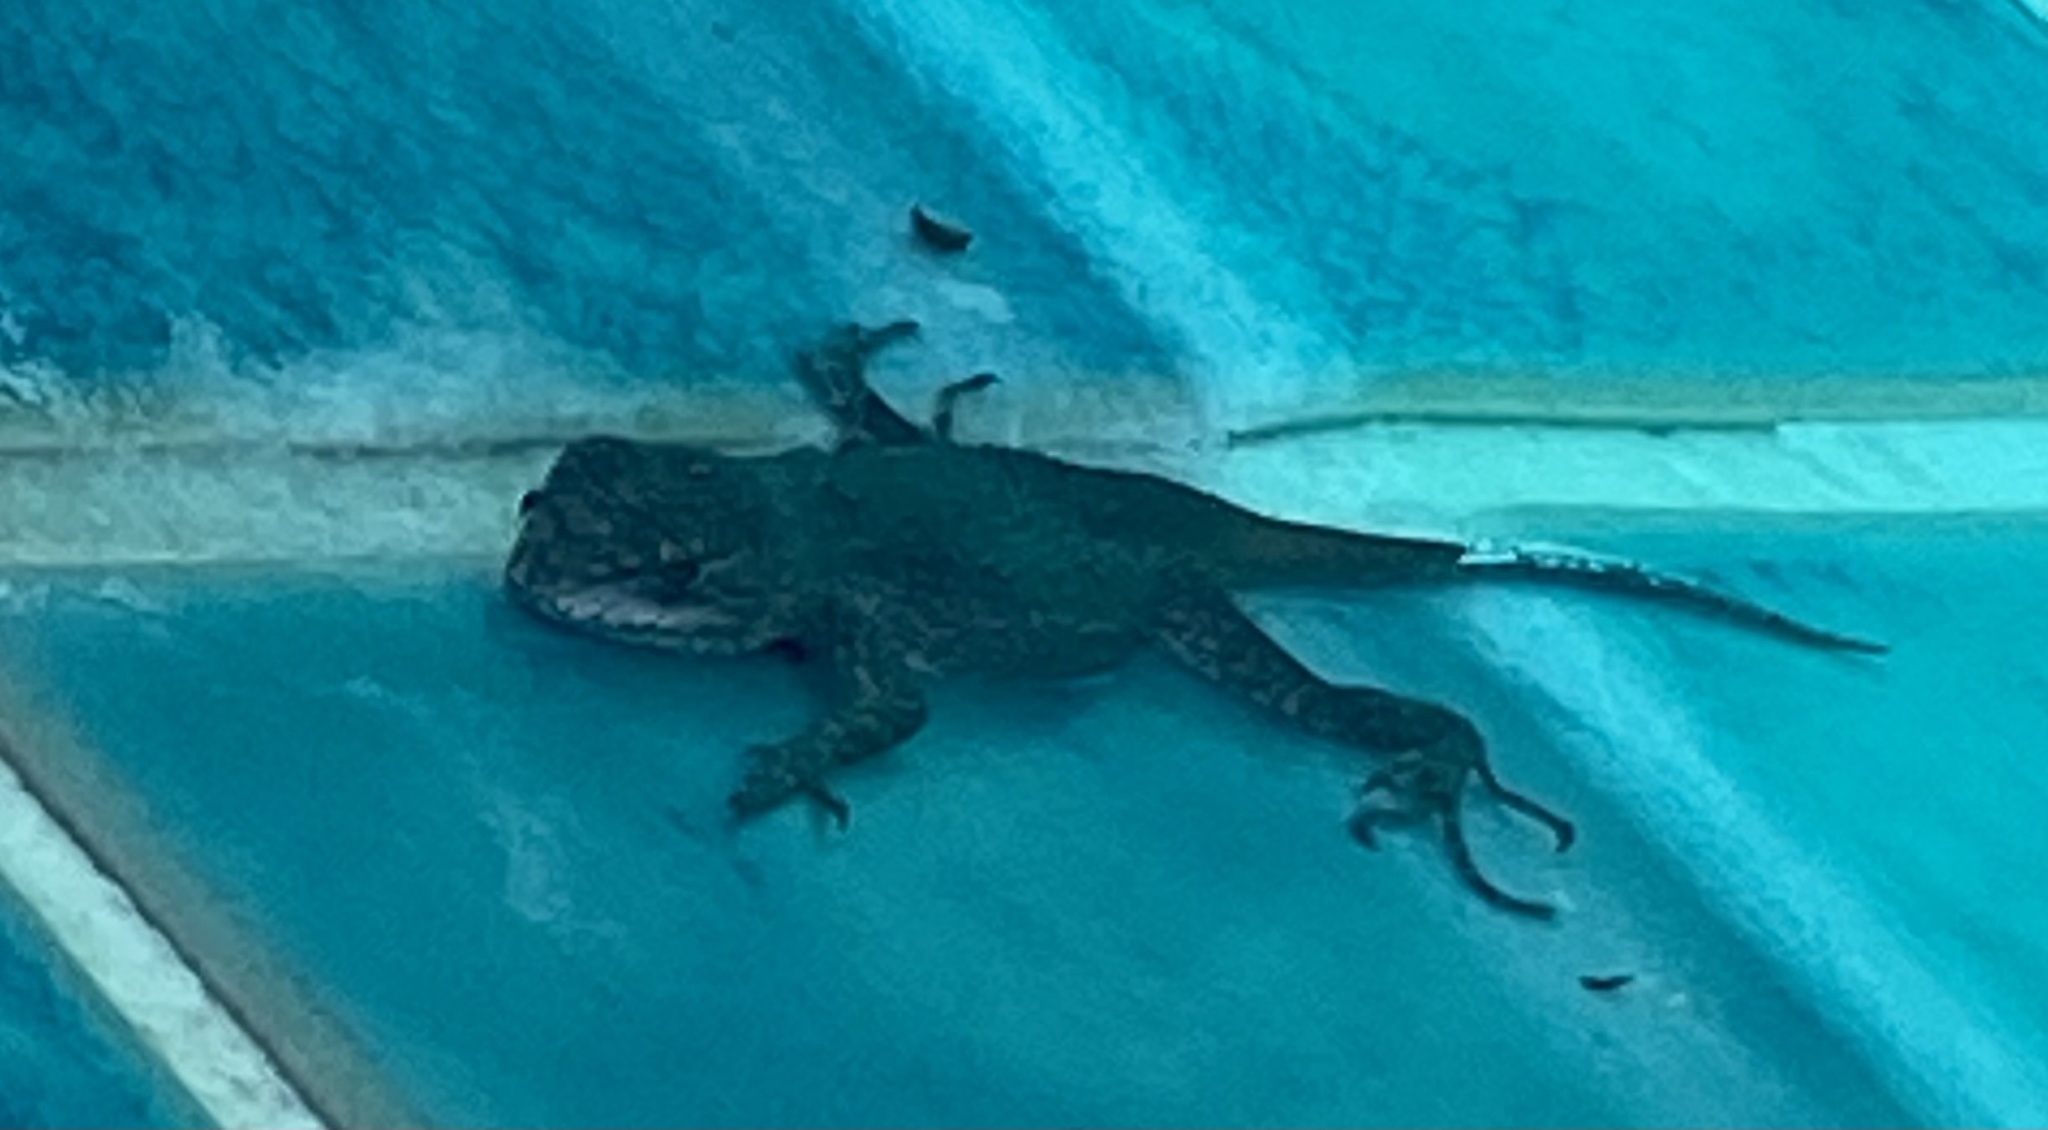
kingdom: Animalia
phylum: Chordata
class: Squamata
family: Phrynosomatidae
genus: Sceloporus
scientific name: Sceloporus occidentalis
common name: Western fence lizard
